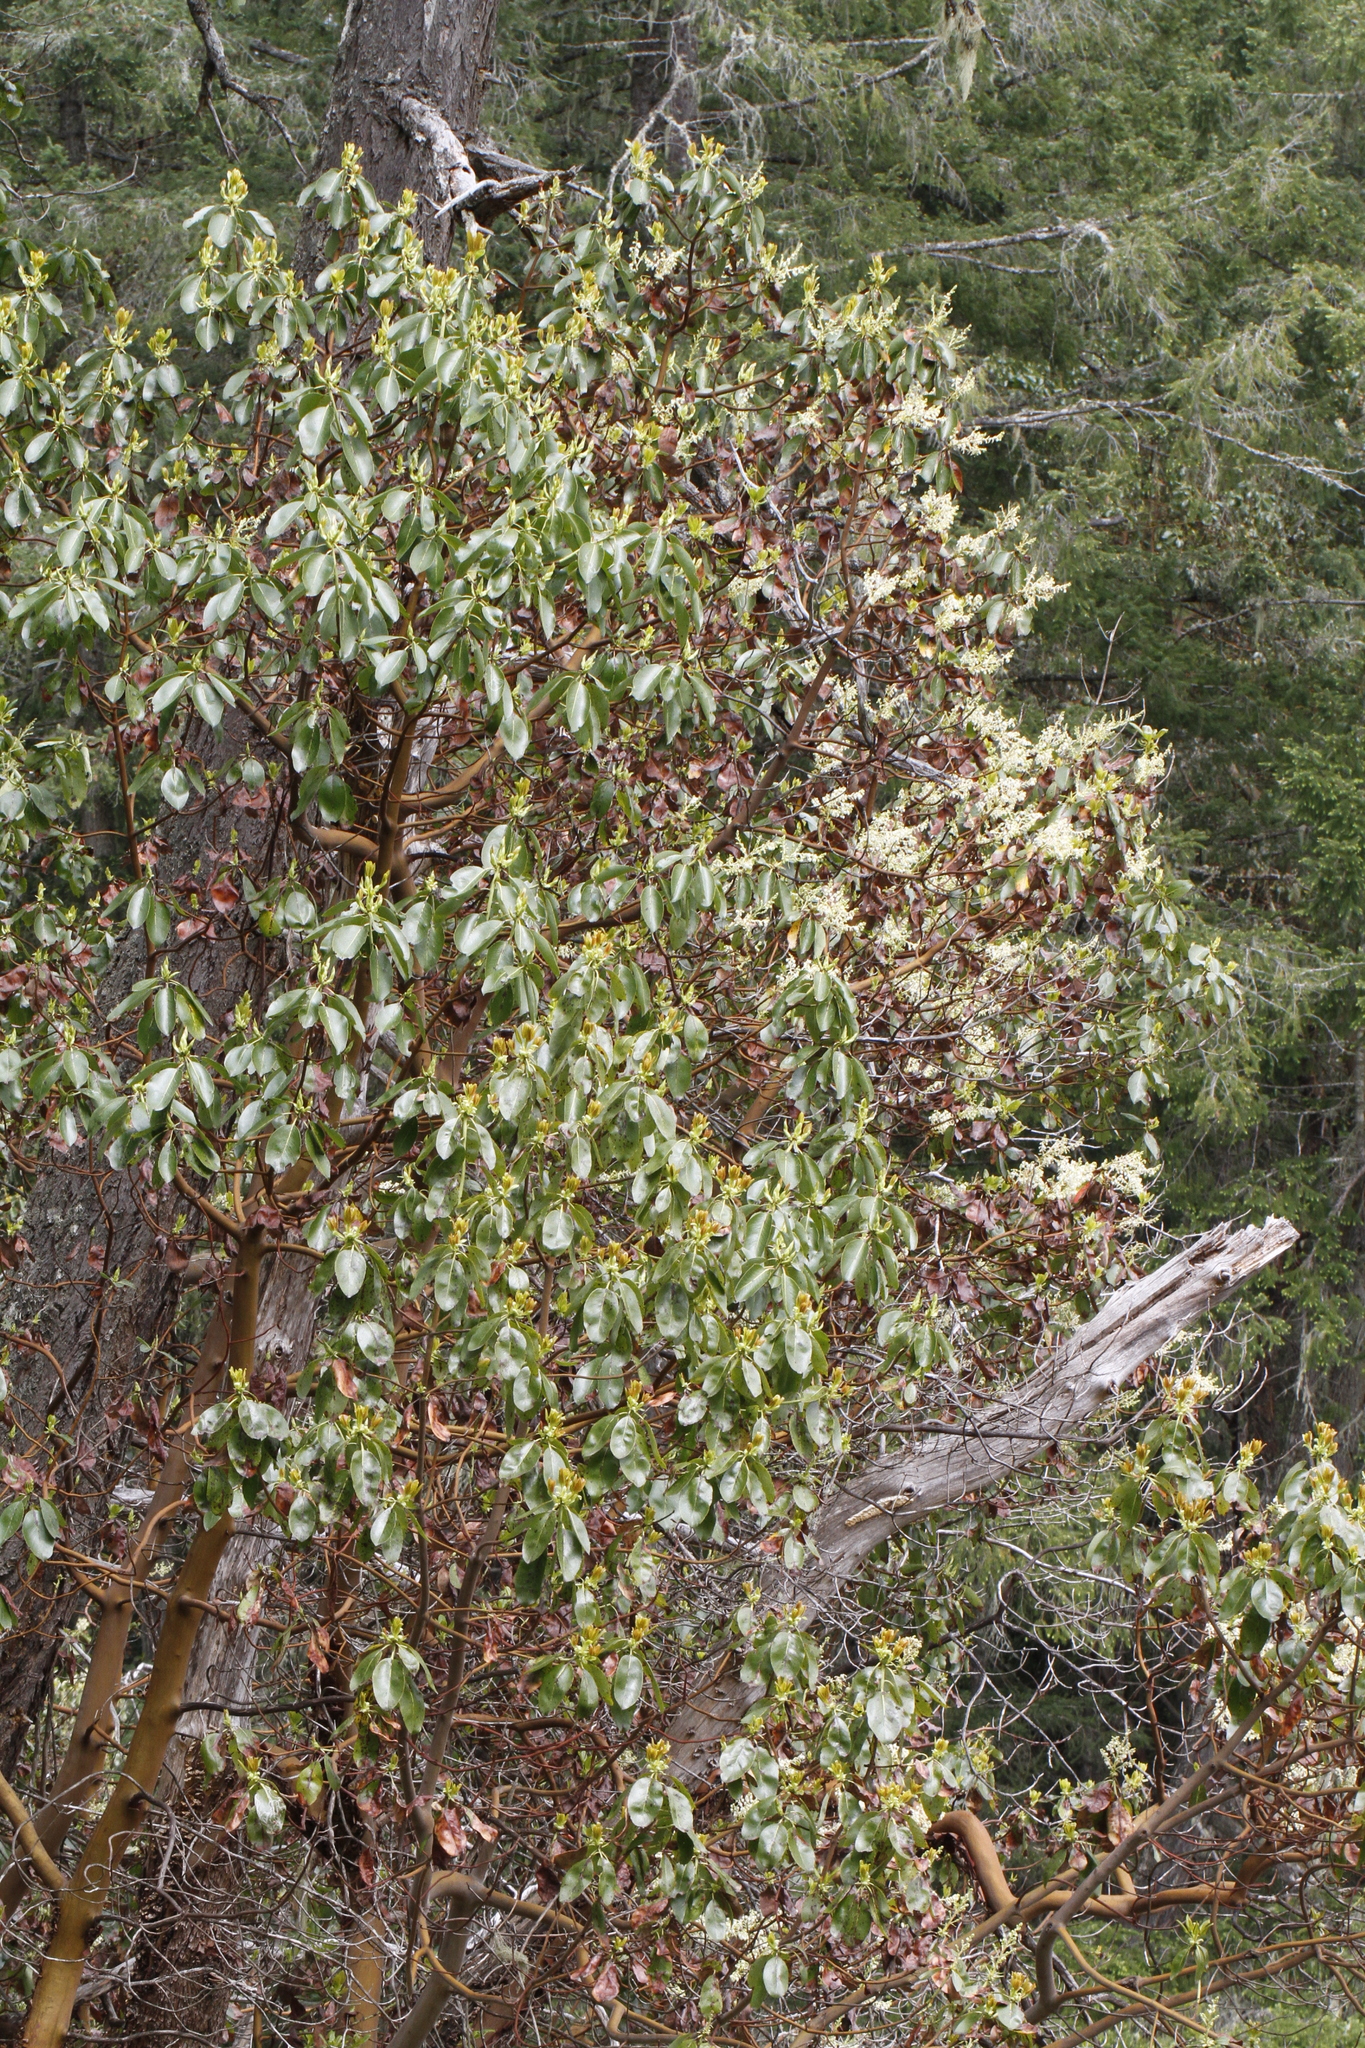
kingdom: Plantae
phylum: Tracheophyta
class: Magnoliopsida
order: Ericales
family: Ericaceae
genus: Arbutus
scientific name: Arbutus menziesii
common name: Pacific madrone
